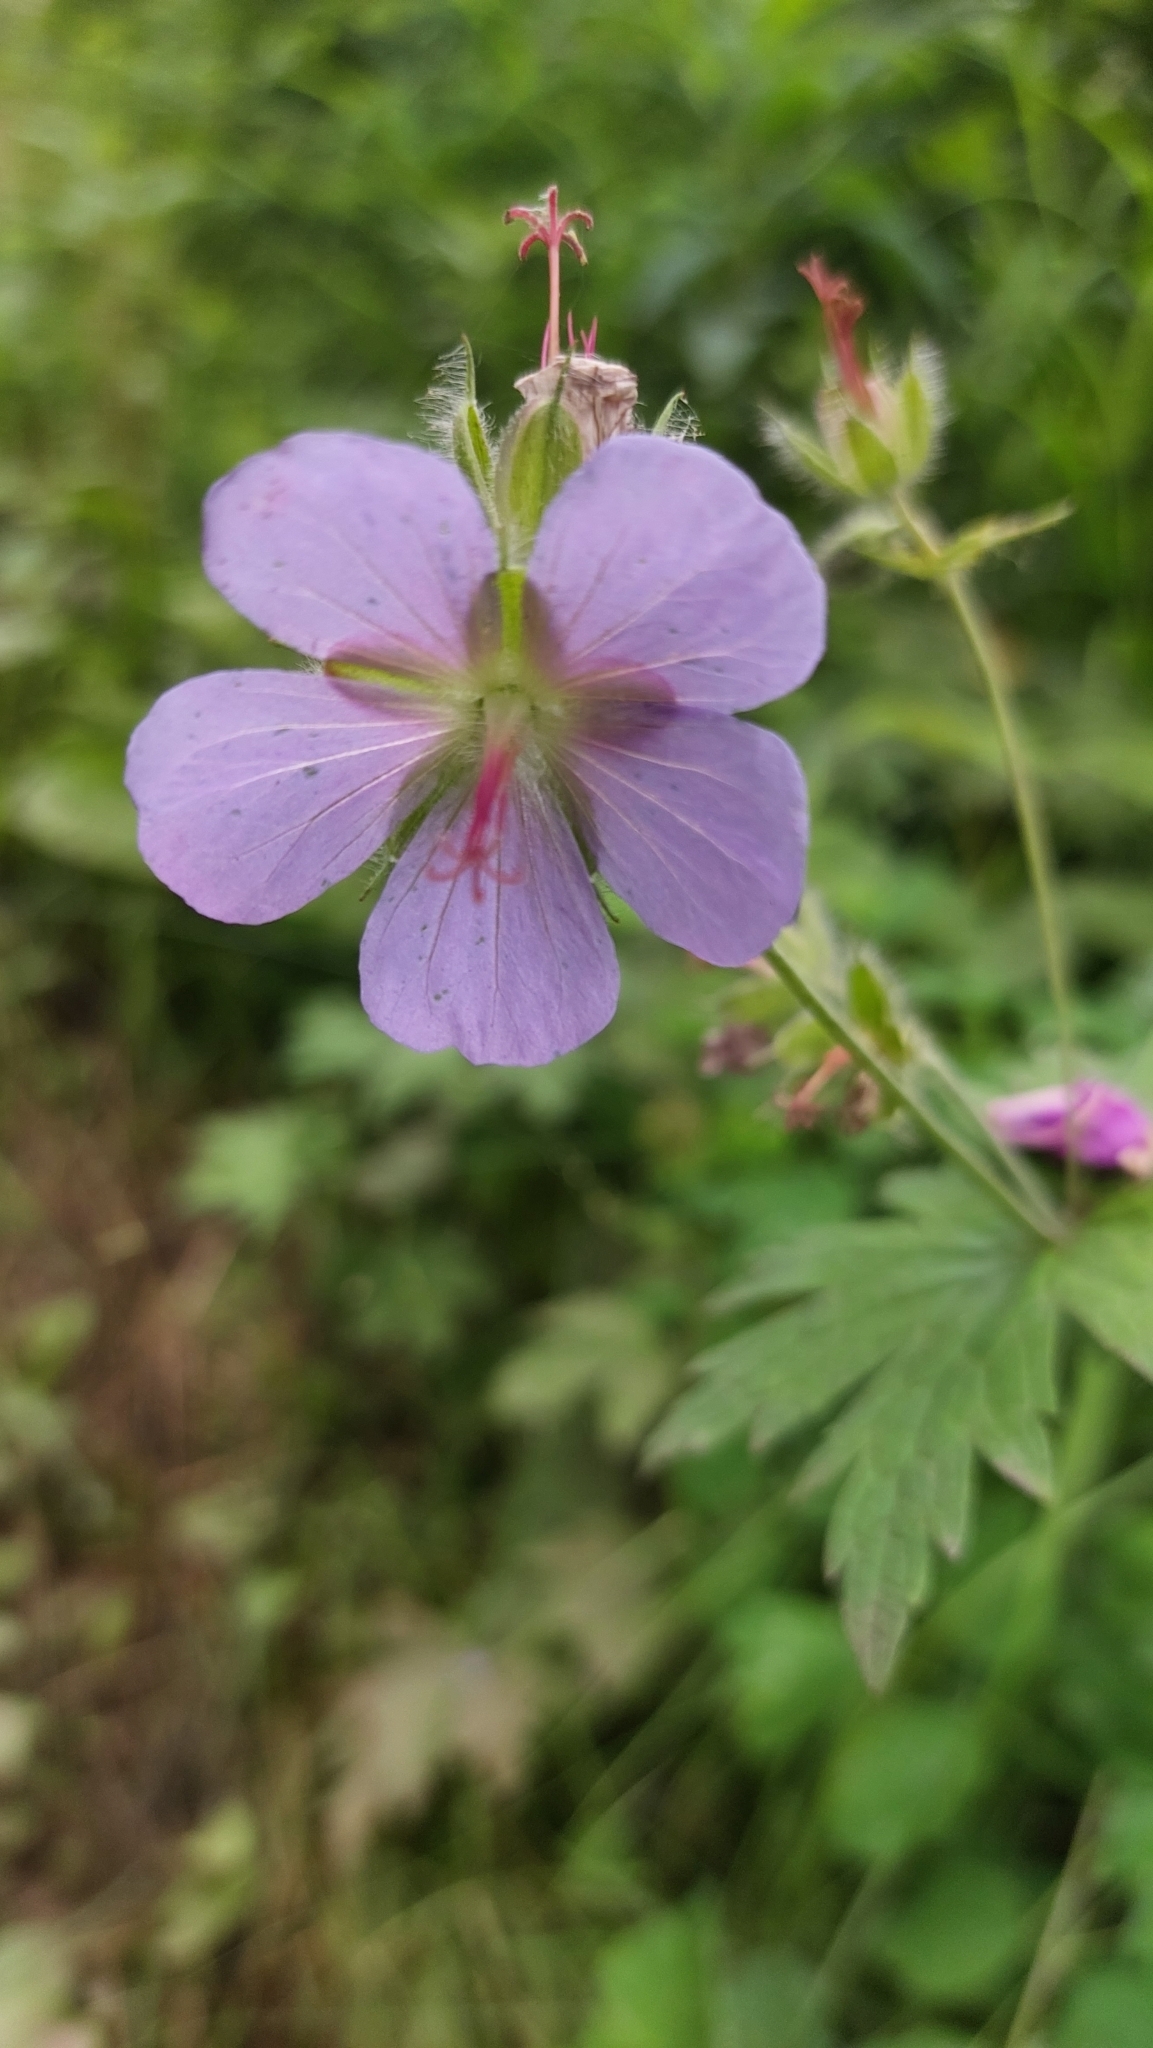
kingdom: Plantae
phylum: Tracheophyta
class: Magnoliopsida
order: Geraniales
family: Geraniaceae
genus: Geranium
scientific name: Geranium erianthum
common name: Northern crane's-bill
